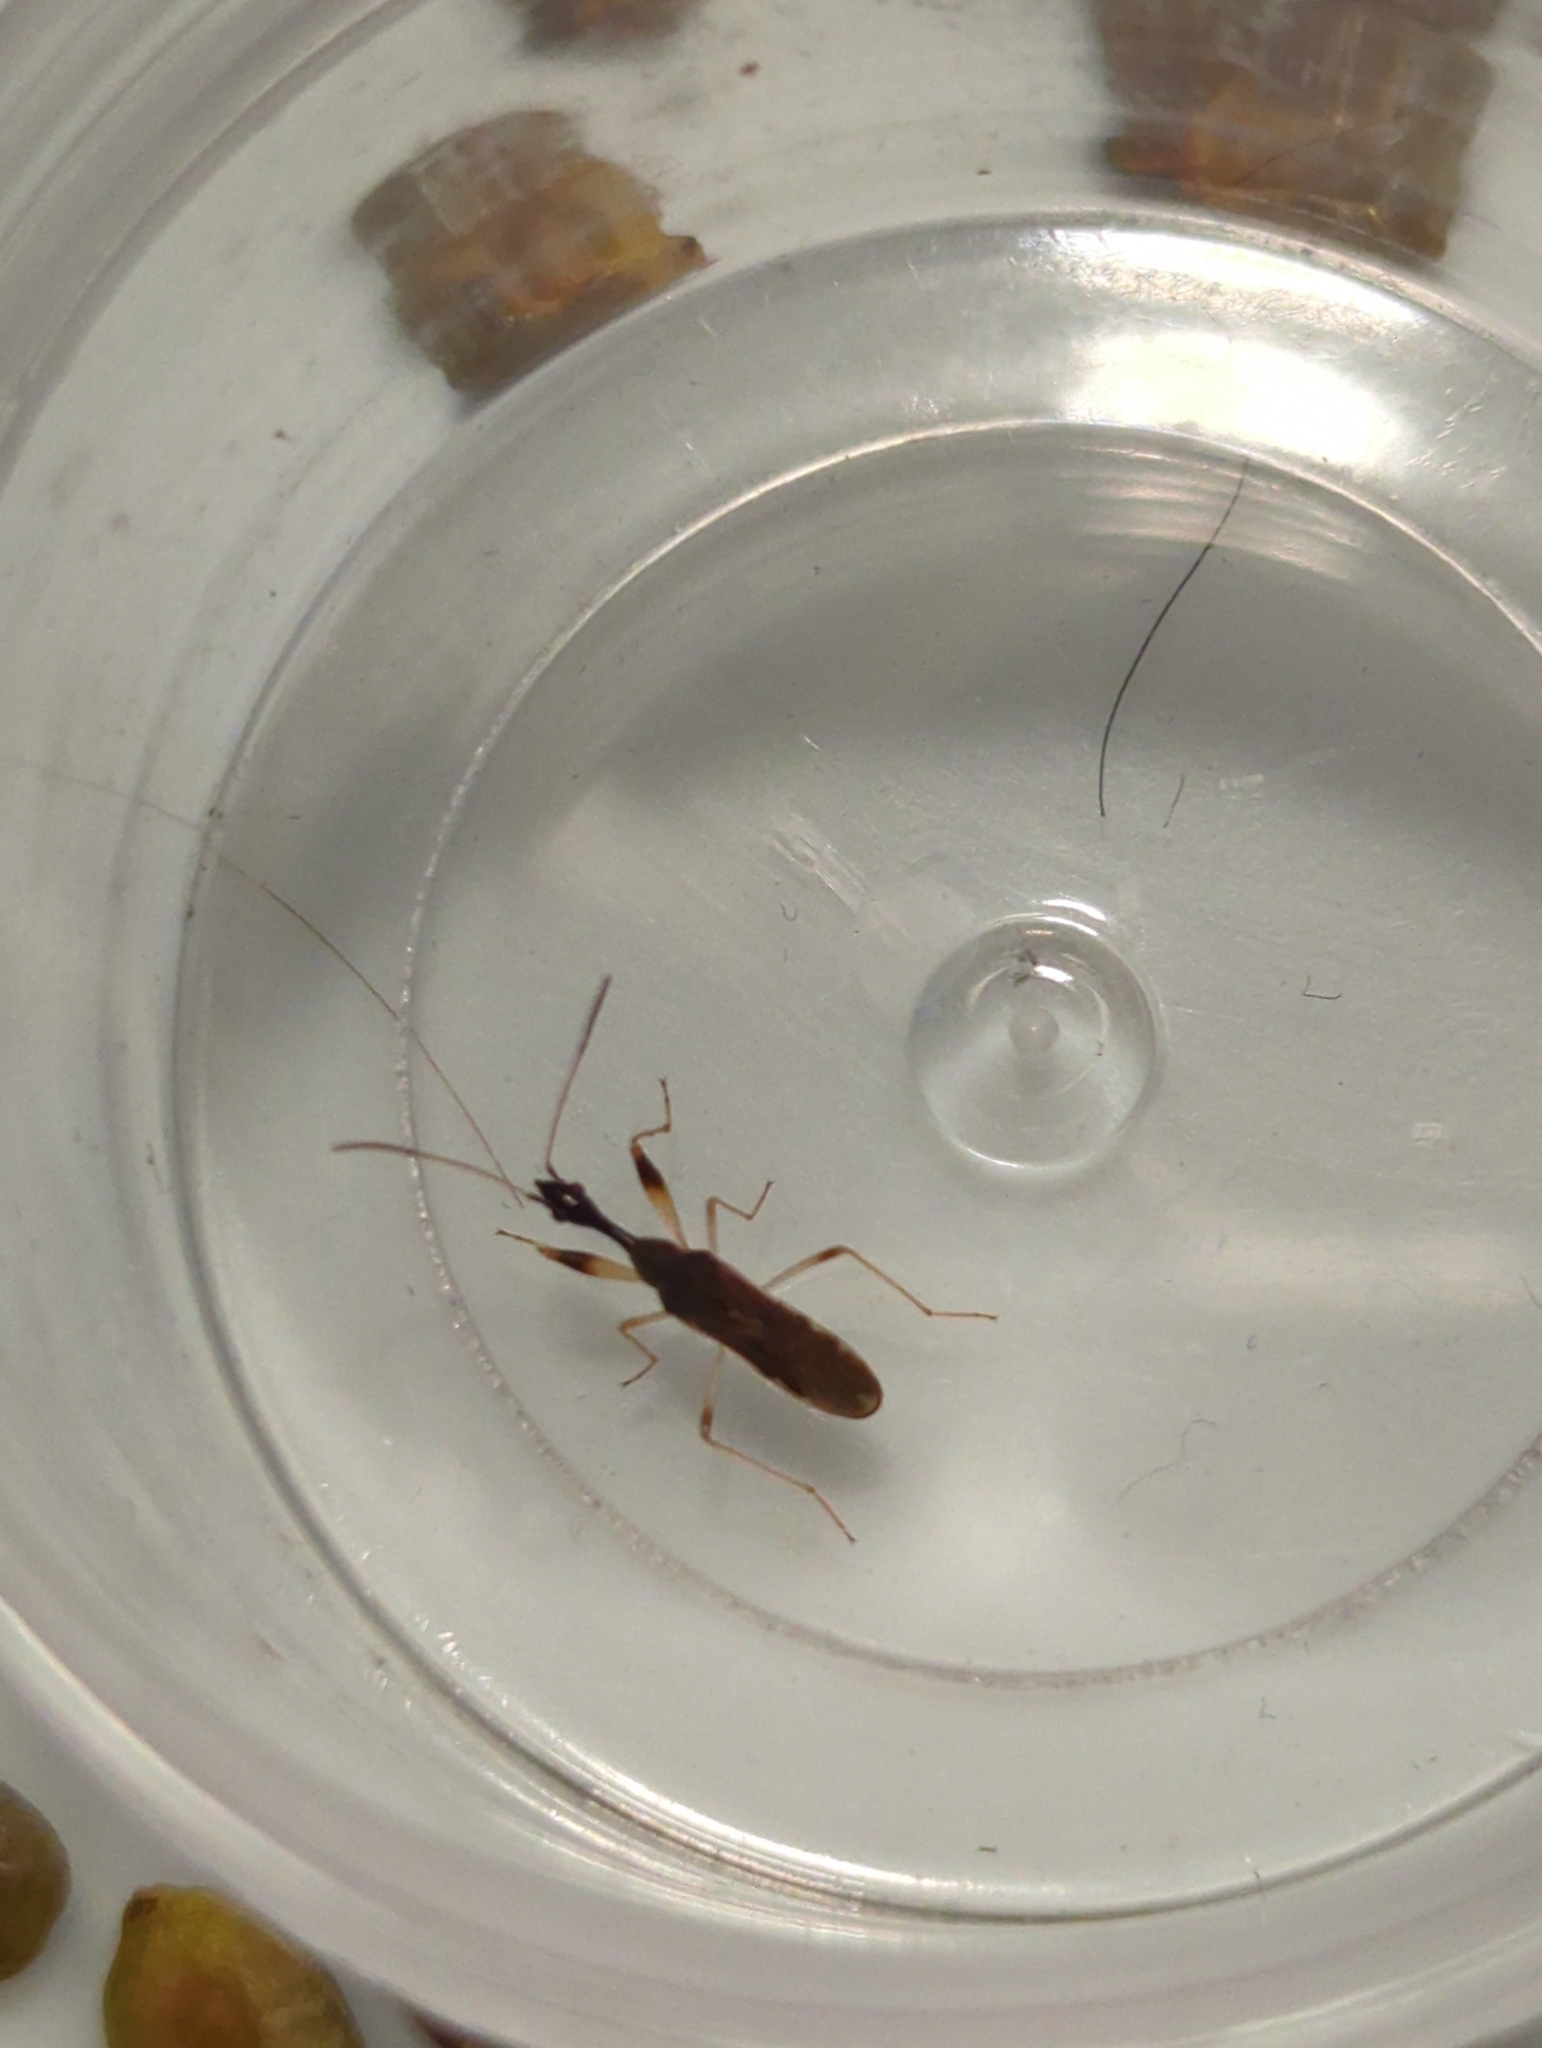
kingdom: Animalia
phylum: Arthropoda
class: Insecta
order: Hemiptera
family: Rhyparochromidae
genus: Myodocha
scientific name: Myodocha serripes
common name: Long-necked seed bug
